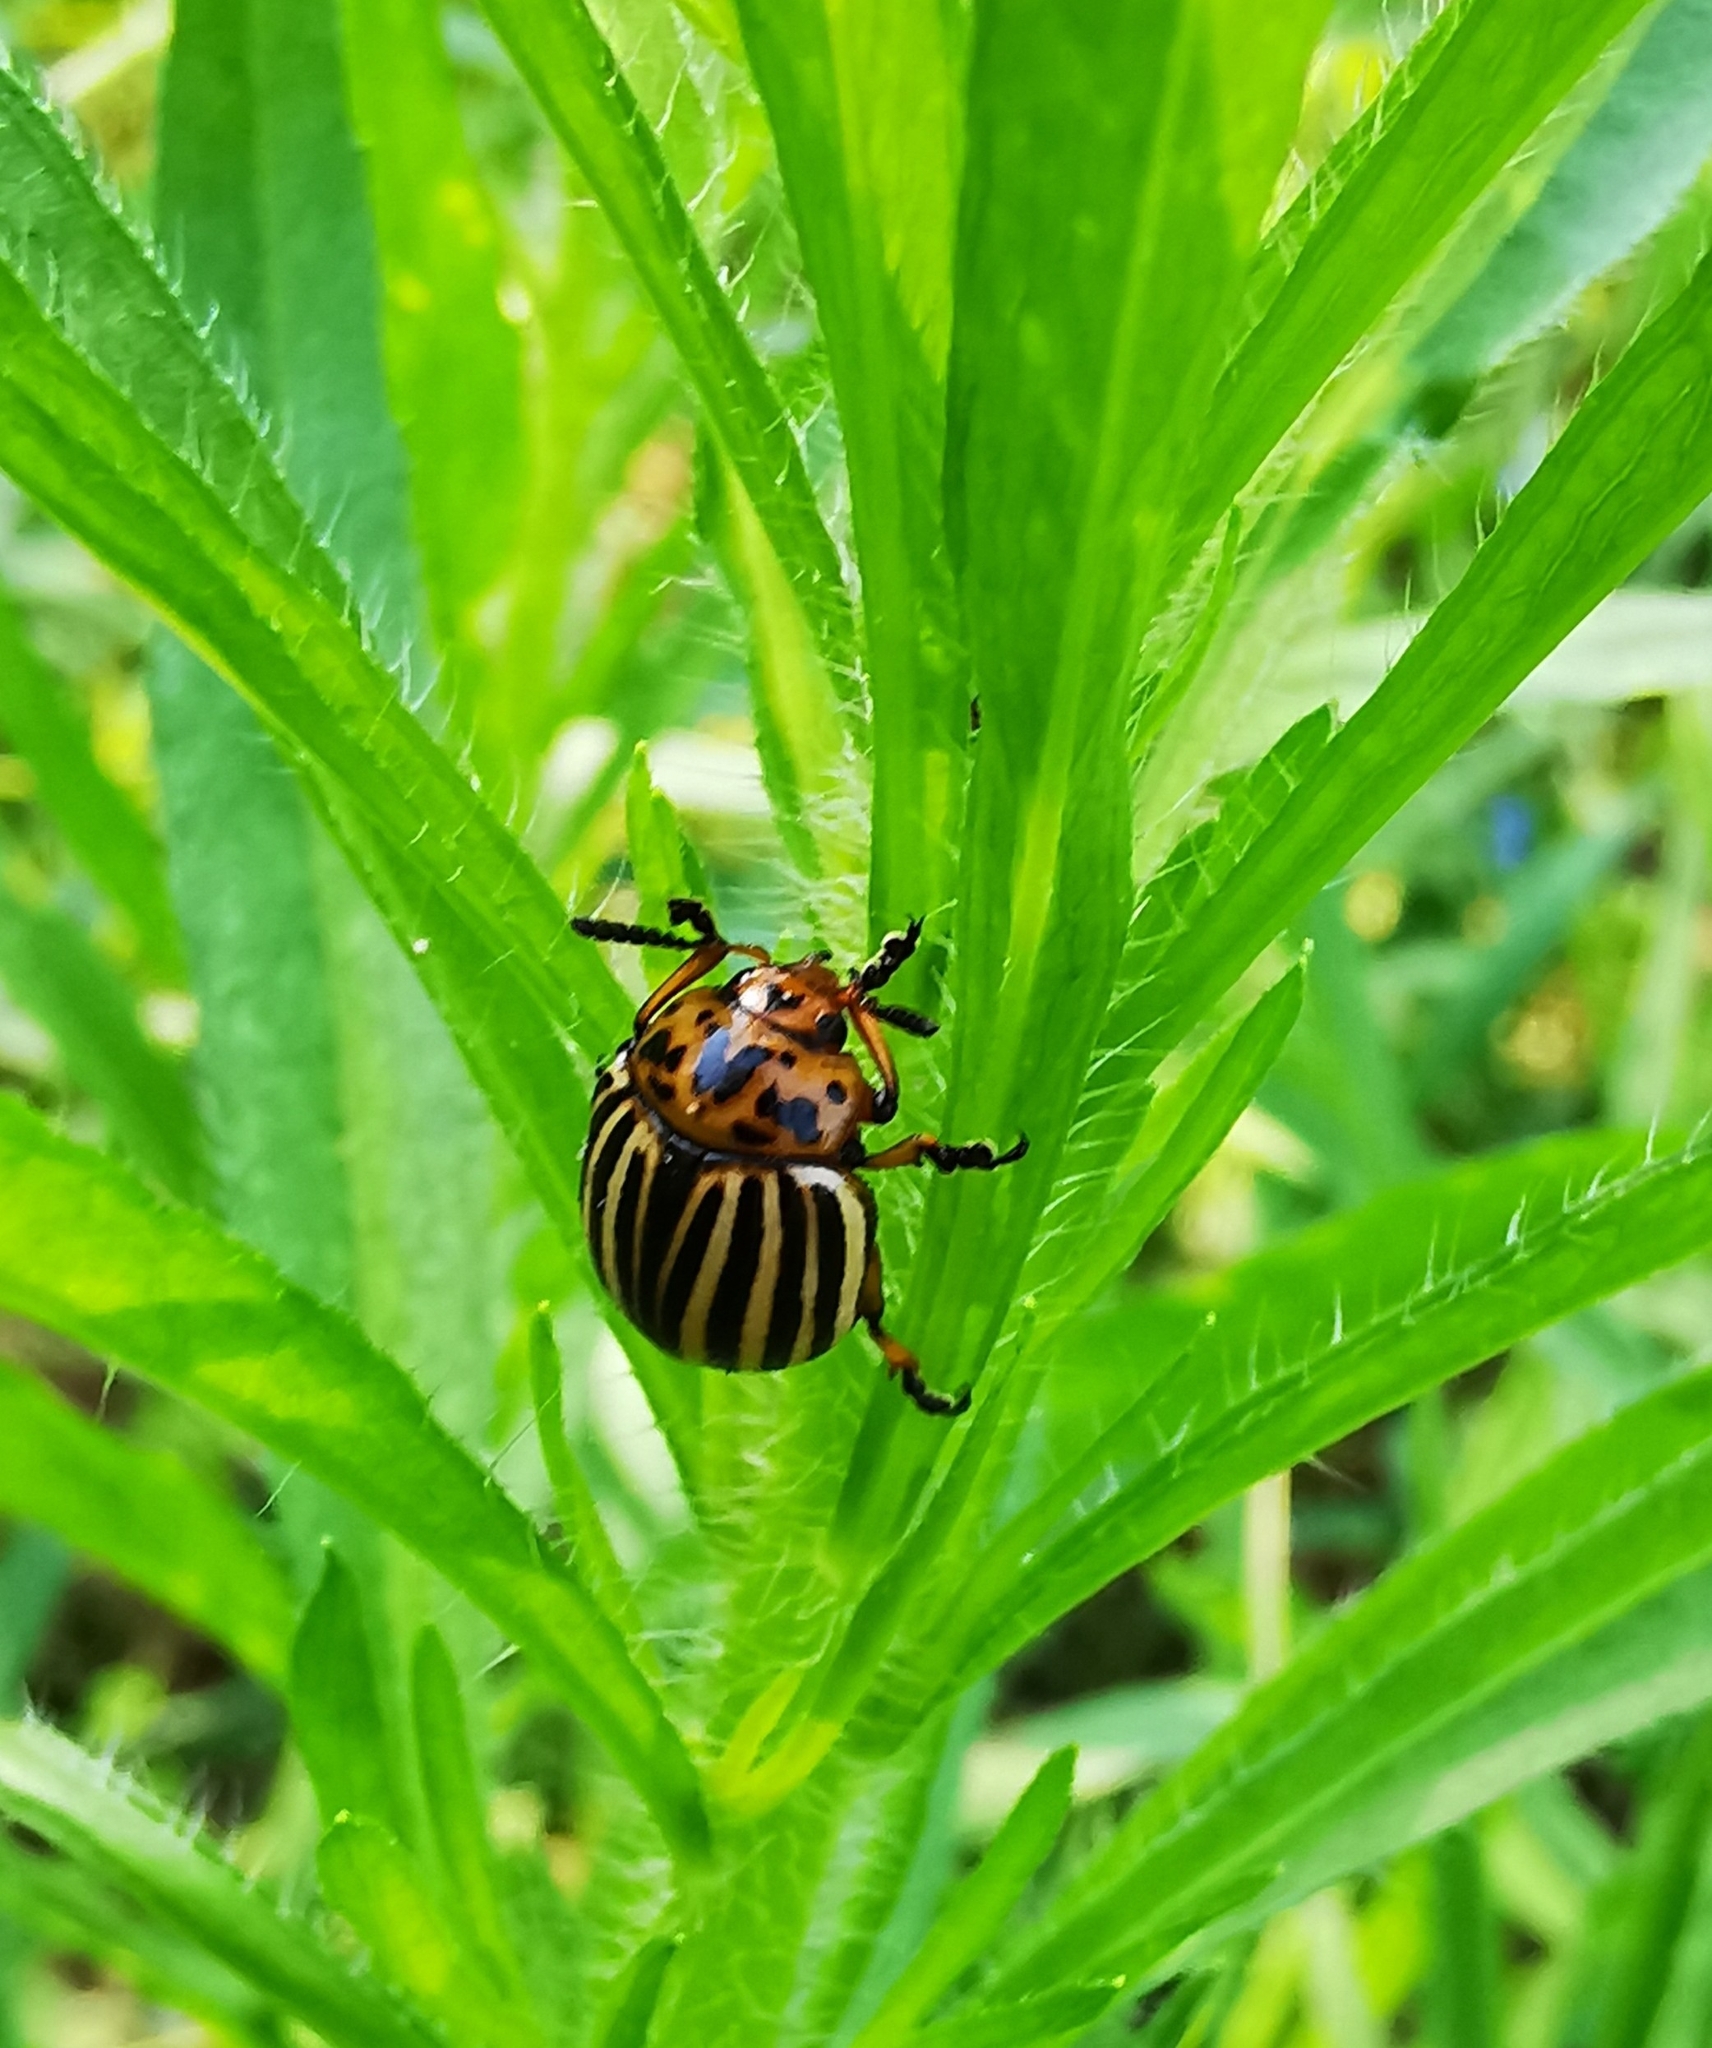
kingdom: Animalia
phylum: Arthropoda
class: Insecta
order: Coleoptera
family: Chrysomelidae
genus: Leptinotarsa
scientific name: Leptinotarsa decemlineata
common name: Colorado potato beetle
